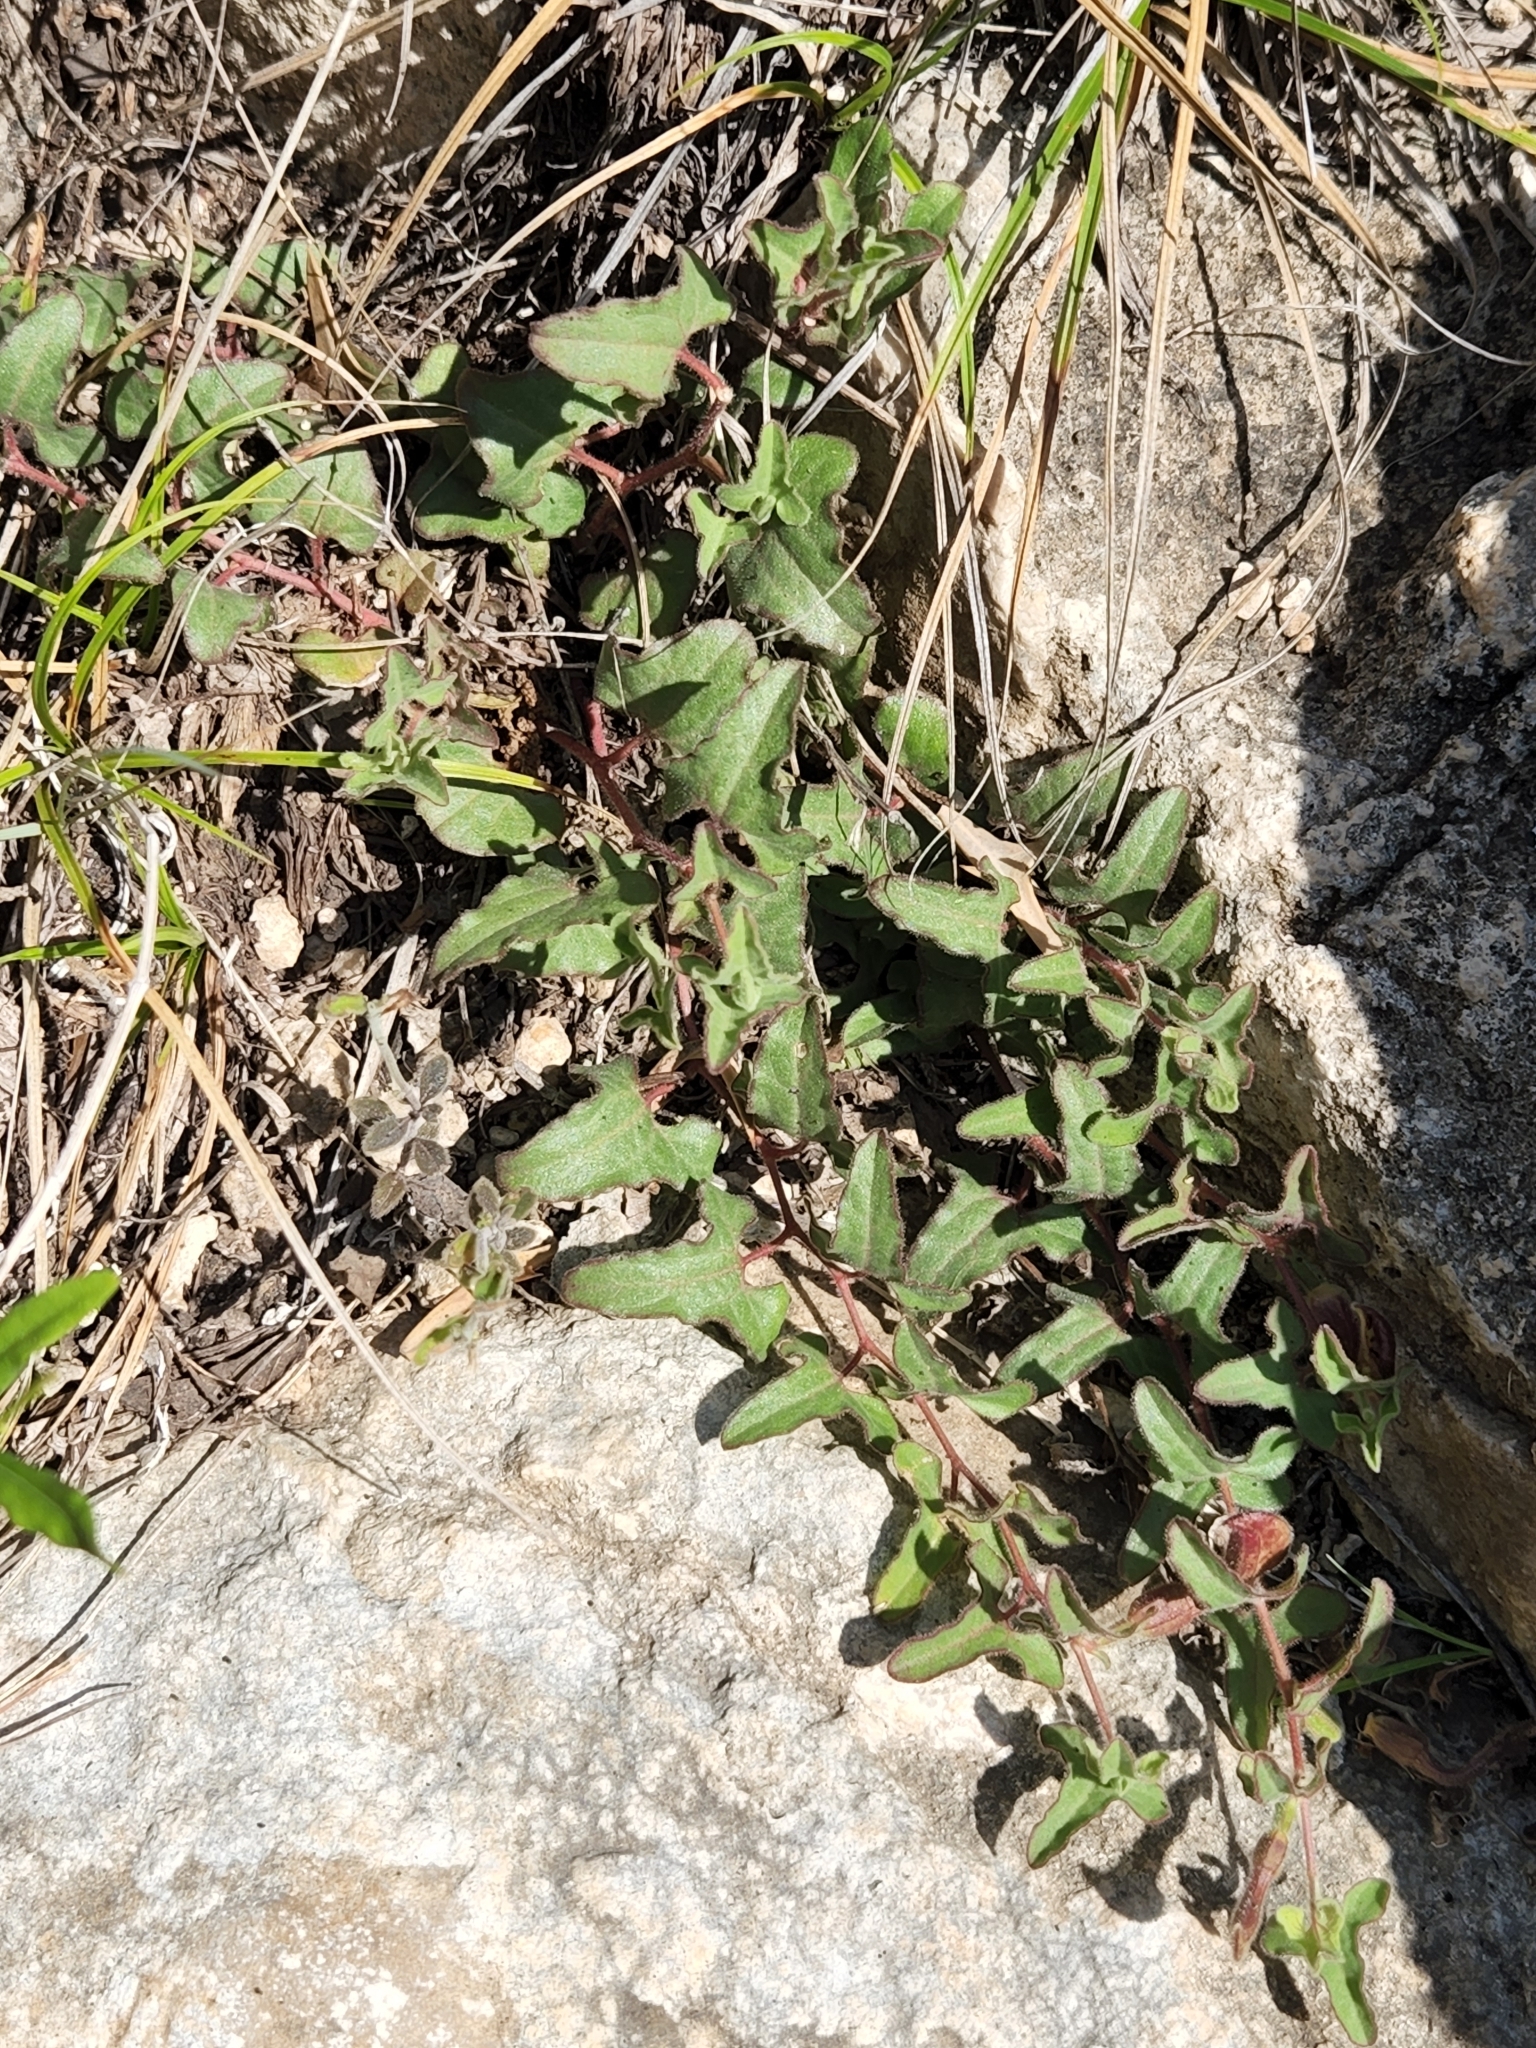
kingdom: Plantae
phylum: Tracheophyta
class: Magnoliopsida
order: Piperales
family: Aristolochiaceae
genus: Aristolochia
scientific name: Aristolochia coryi
